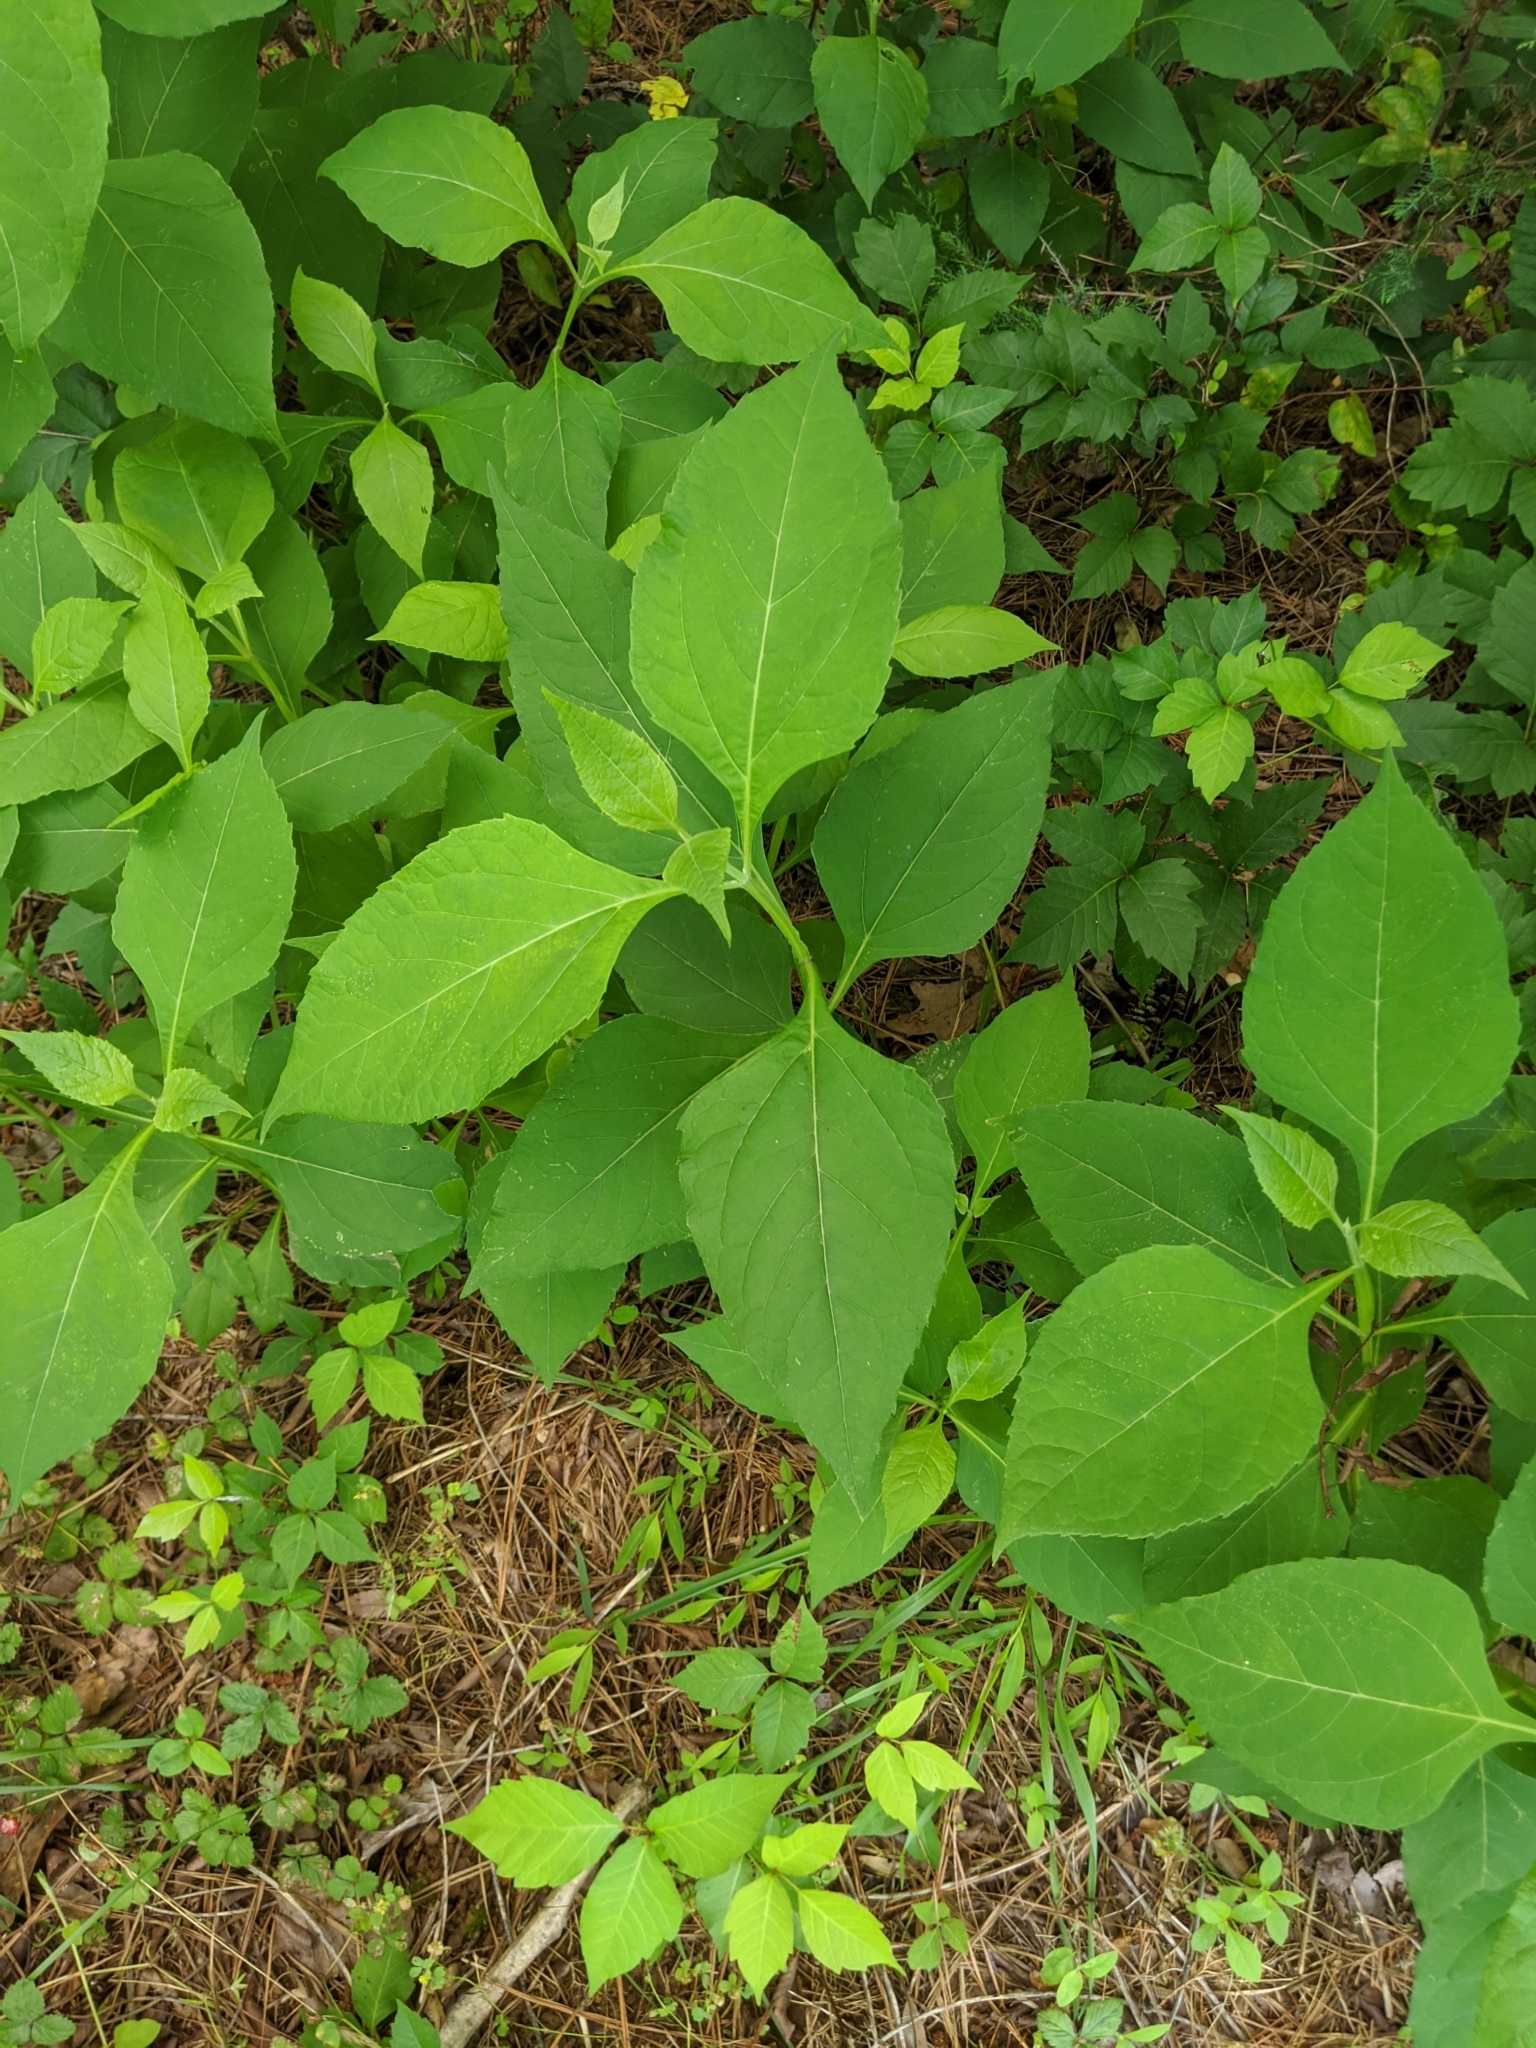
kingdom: Plantae
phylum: Tracheophyta
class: Magnoliopsida
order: Asterales
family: Asteraceae
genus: Verbesina
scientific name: Verbesina occidentalis
